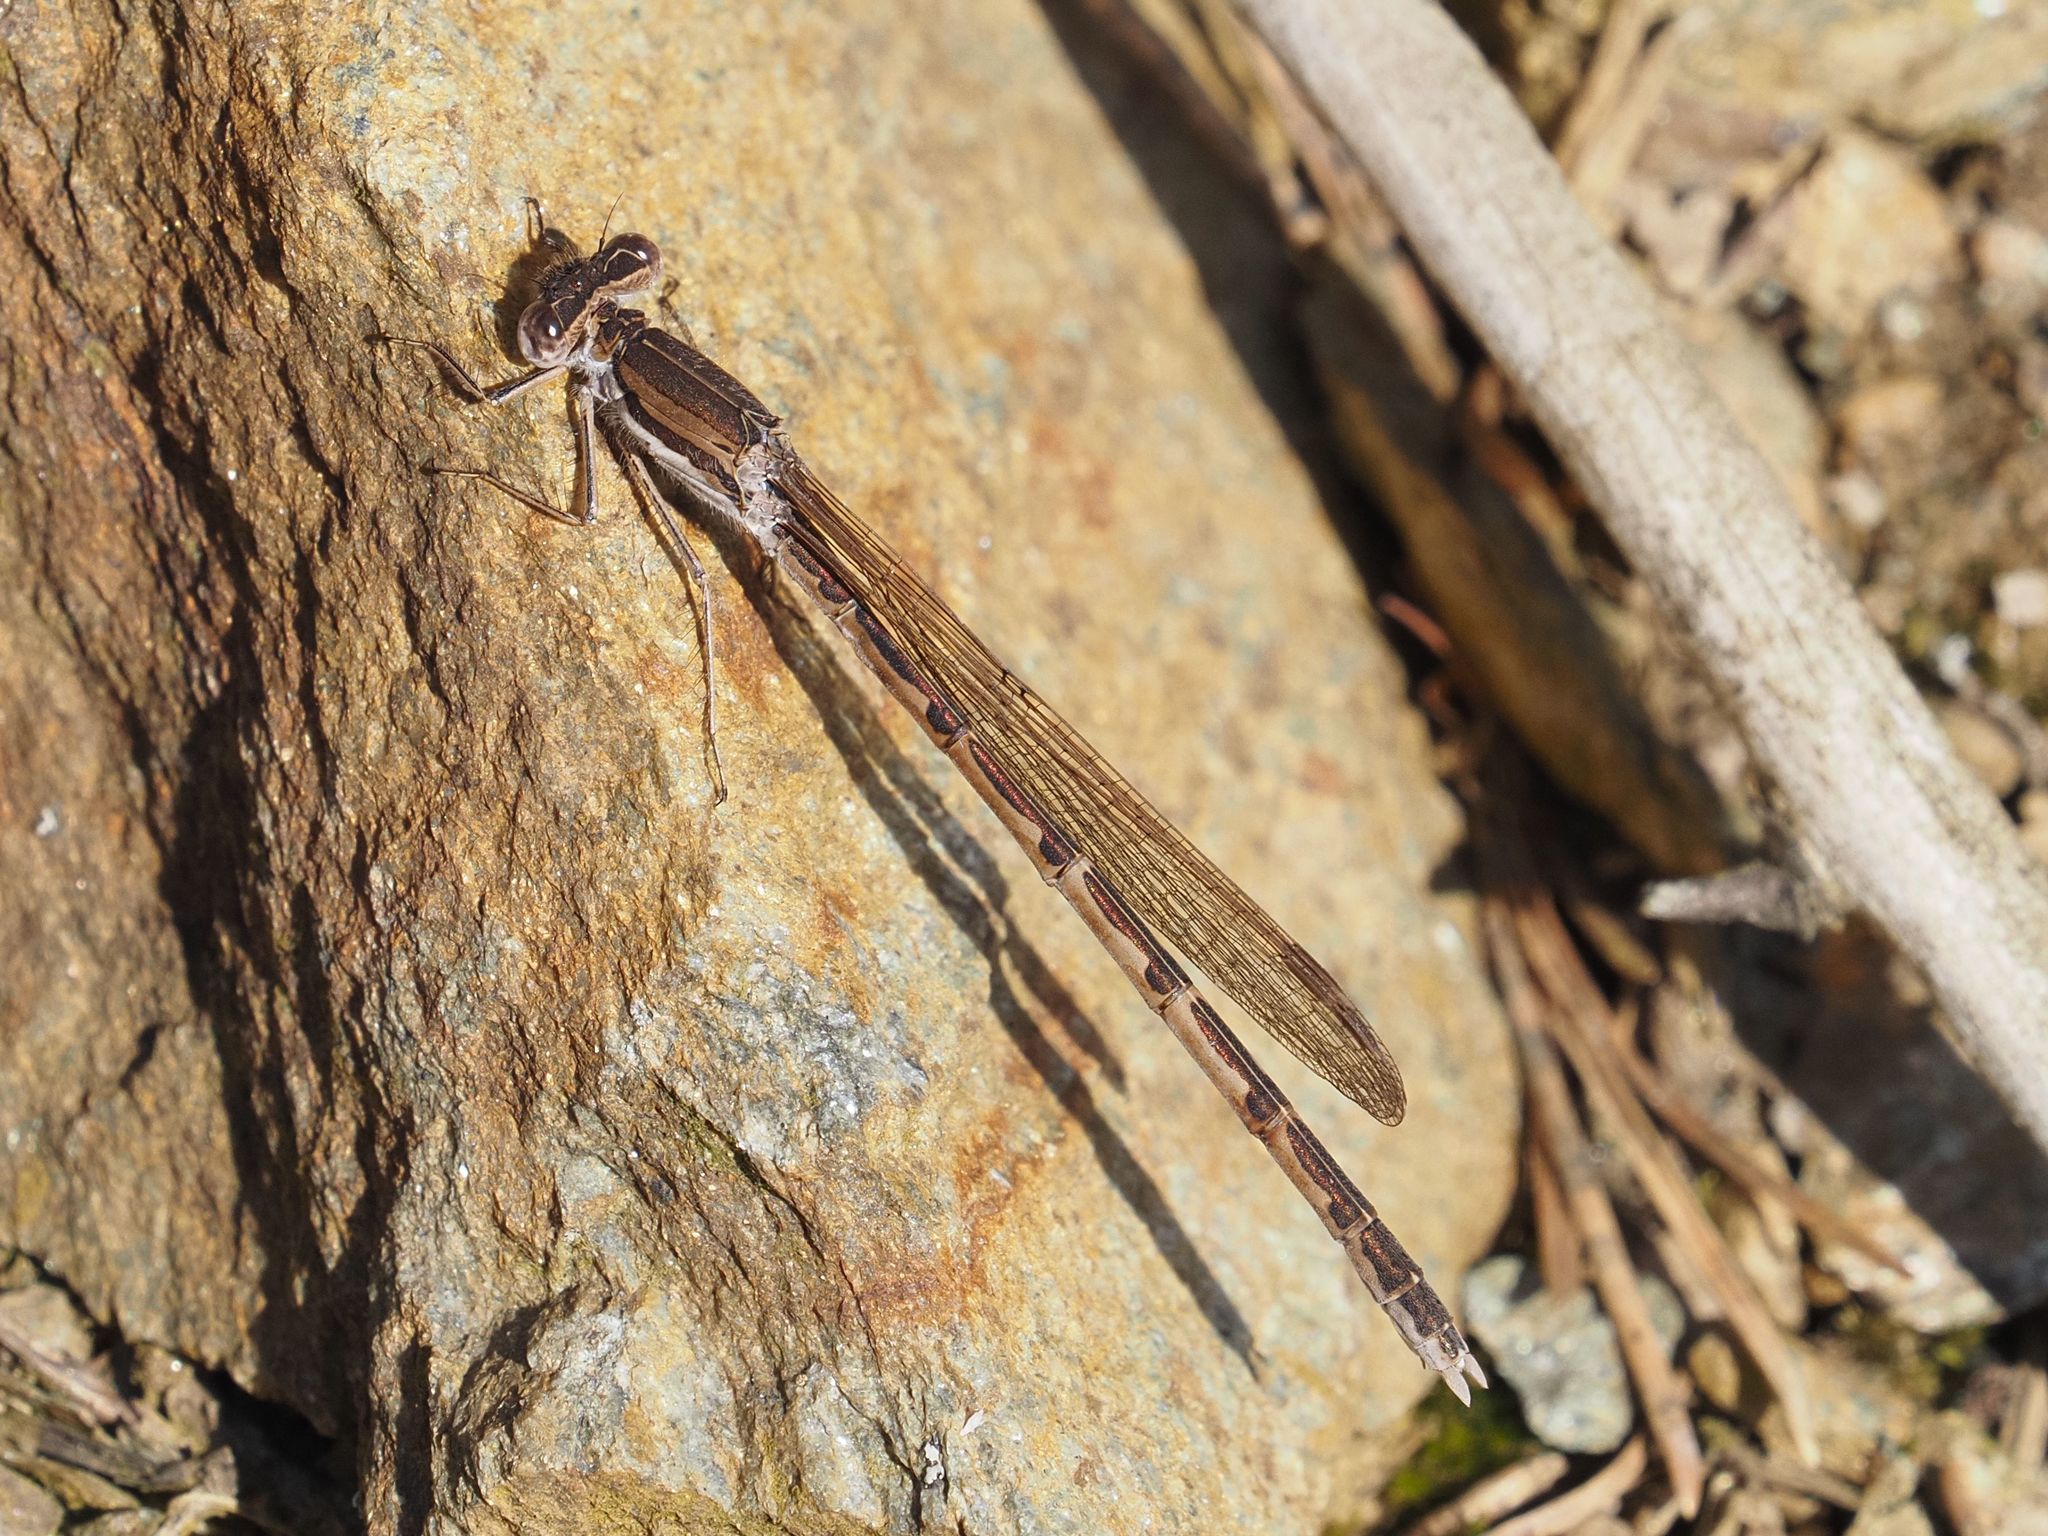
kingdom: Animalia
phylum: Arthropoda
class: Insecta
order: Odonata
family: Lestidae
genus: Sympecma
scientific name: Sympecma fusca
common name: Common winter damsel
